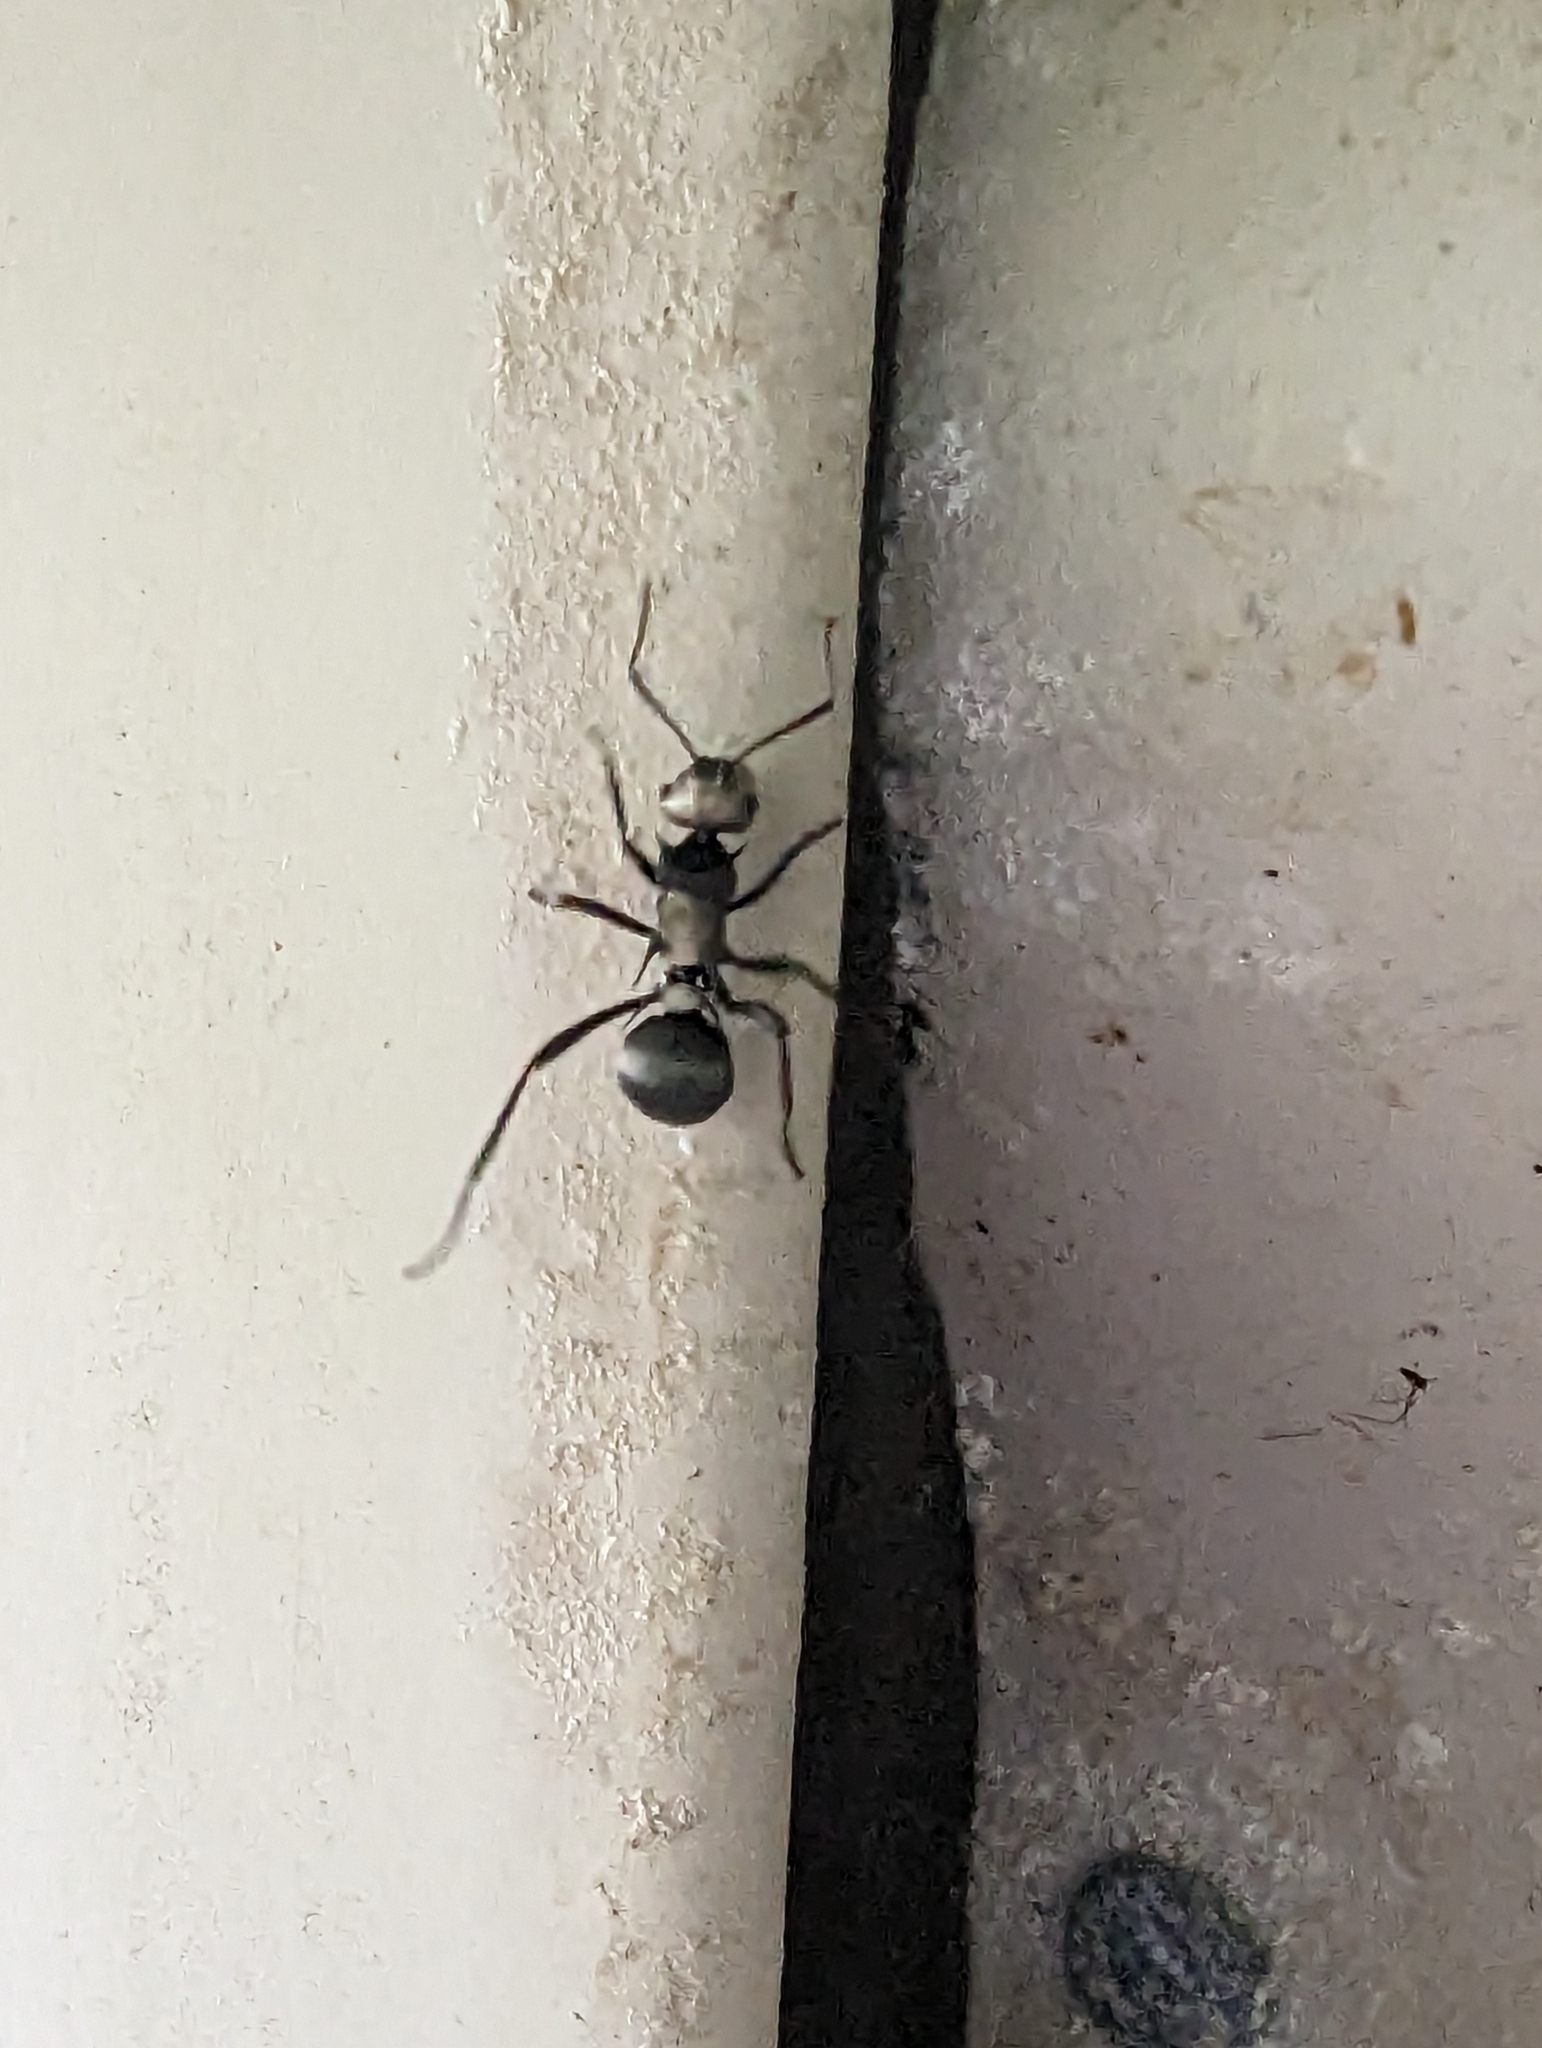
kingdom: Animalia
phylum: Arthropoda
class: Insecta
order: Hymenoptera
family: Formicidae
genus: Polyrhachis
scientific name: Polyrhachis daemeli
